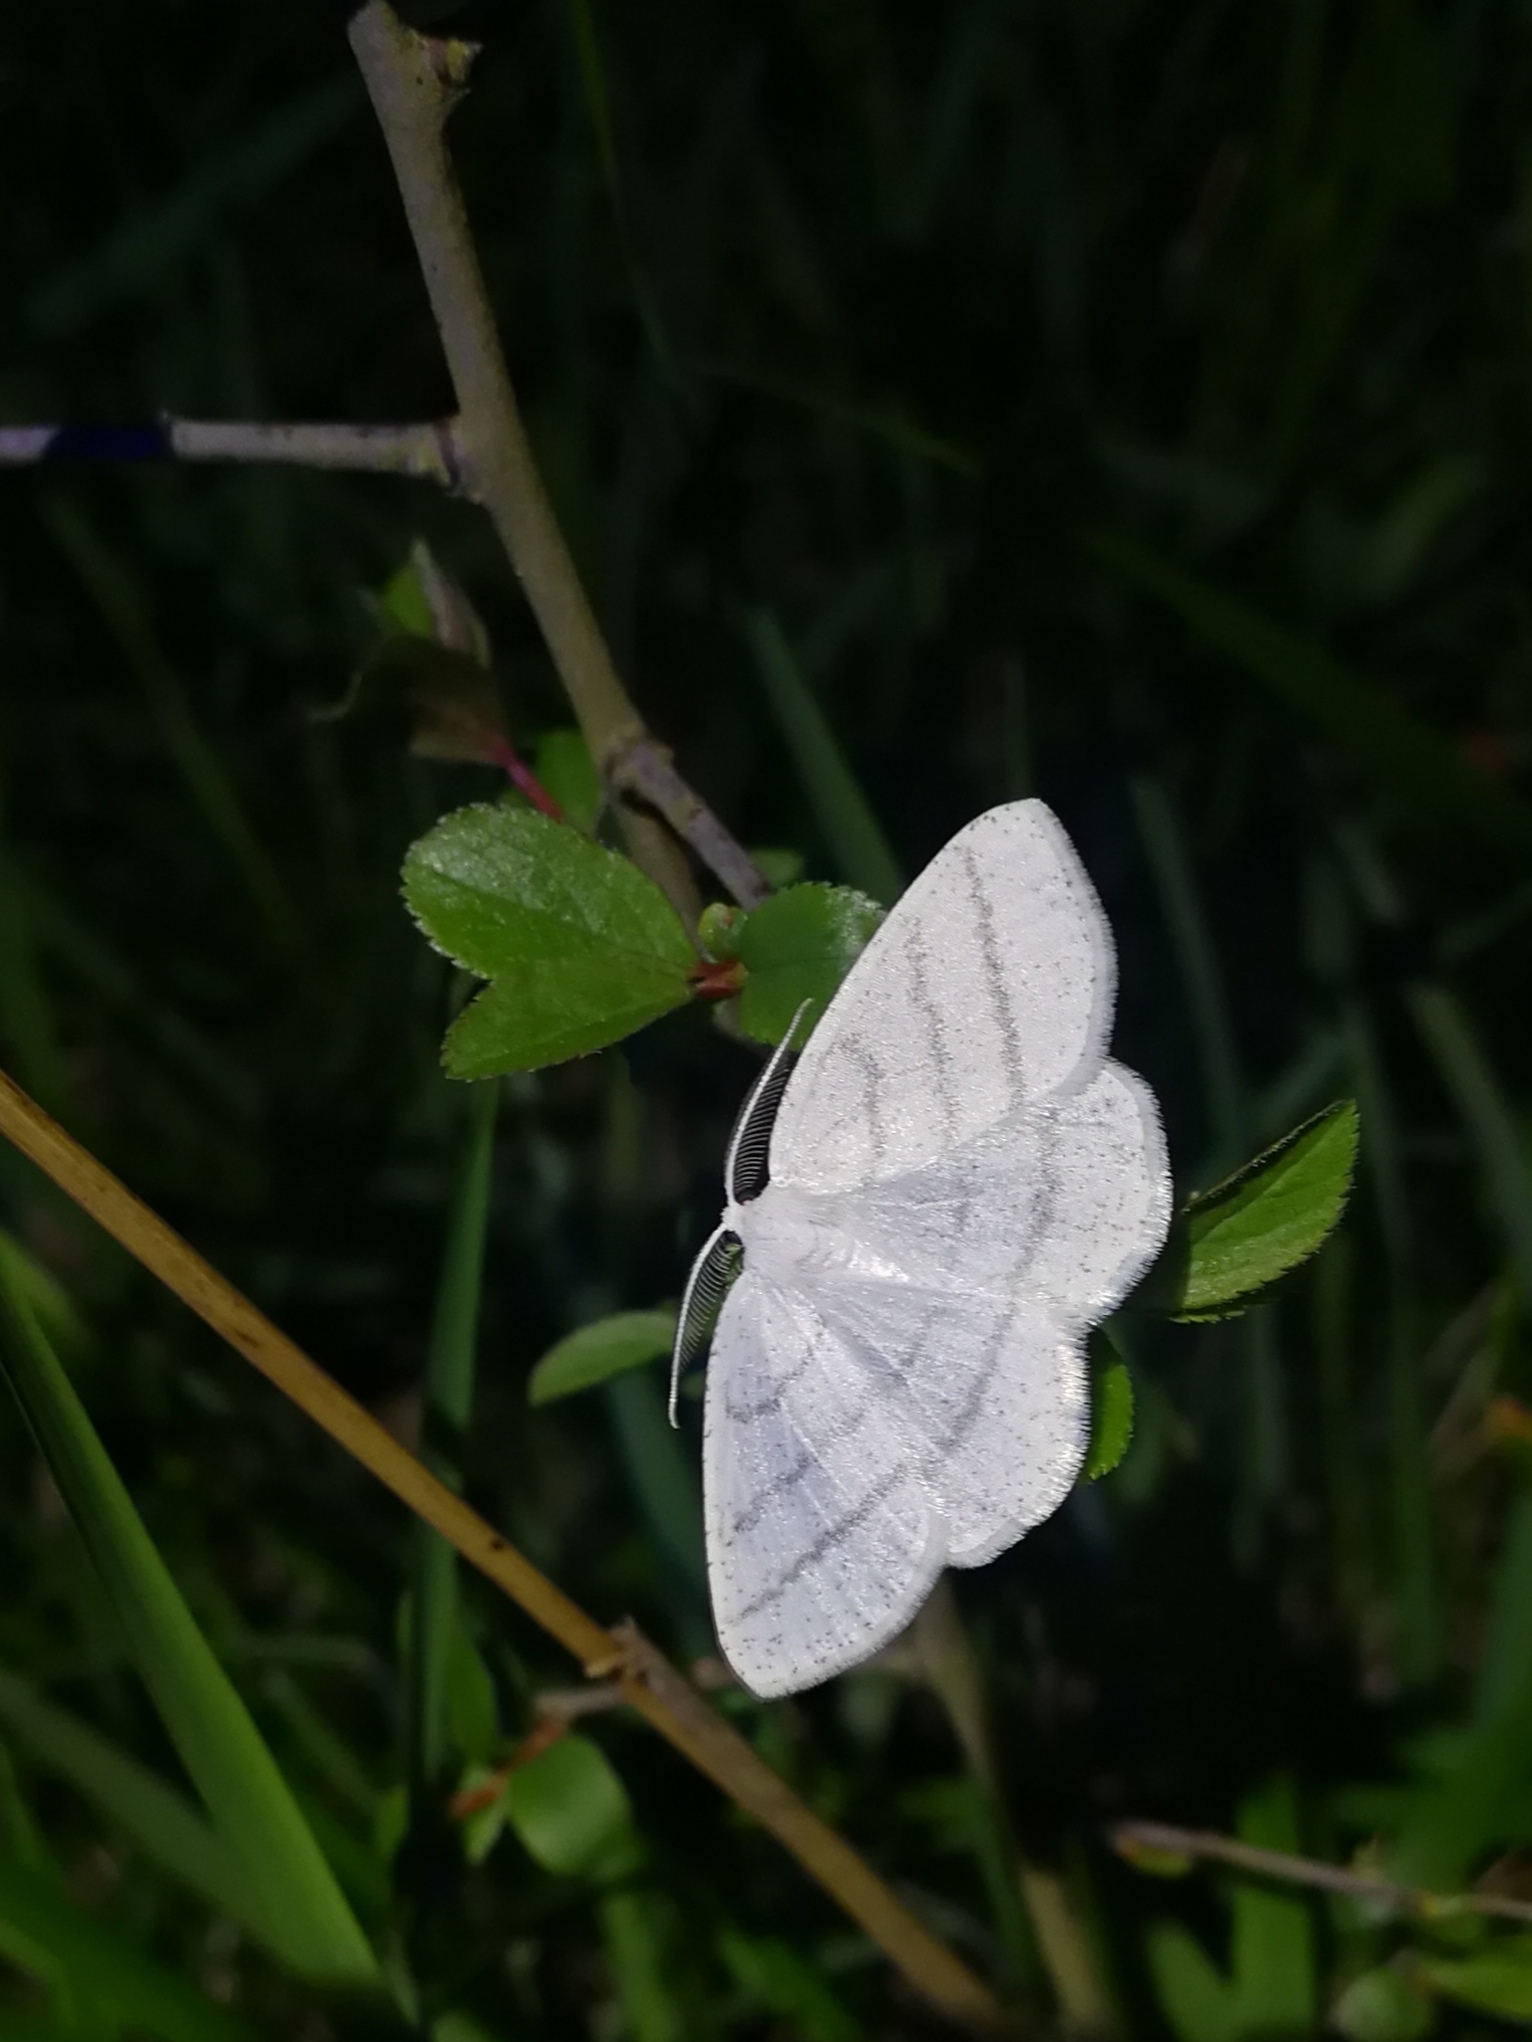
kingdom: Animalia
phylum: Arthropoda
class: Insecta
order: Lepidoptera
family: Geometridae
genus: Cabera
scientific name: Cabera pusaria
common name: Common white wave
